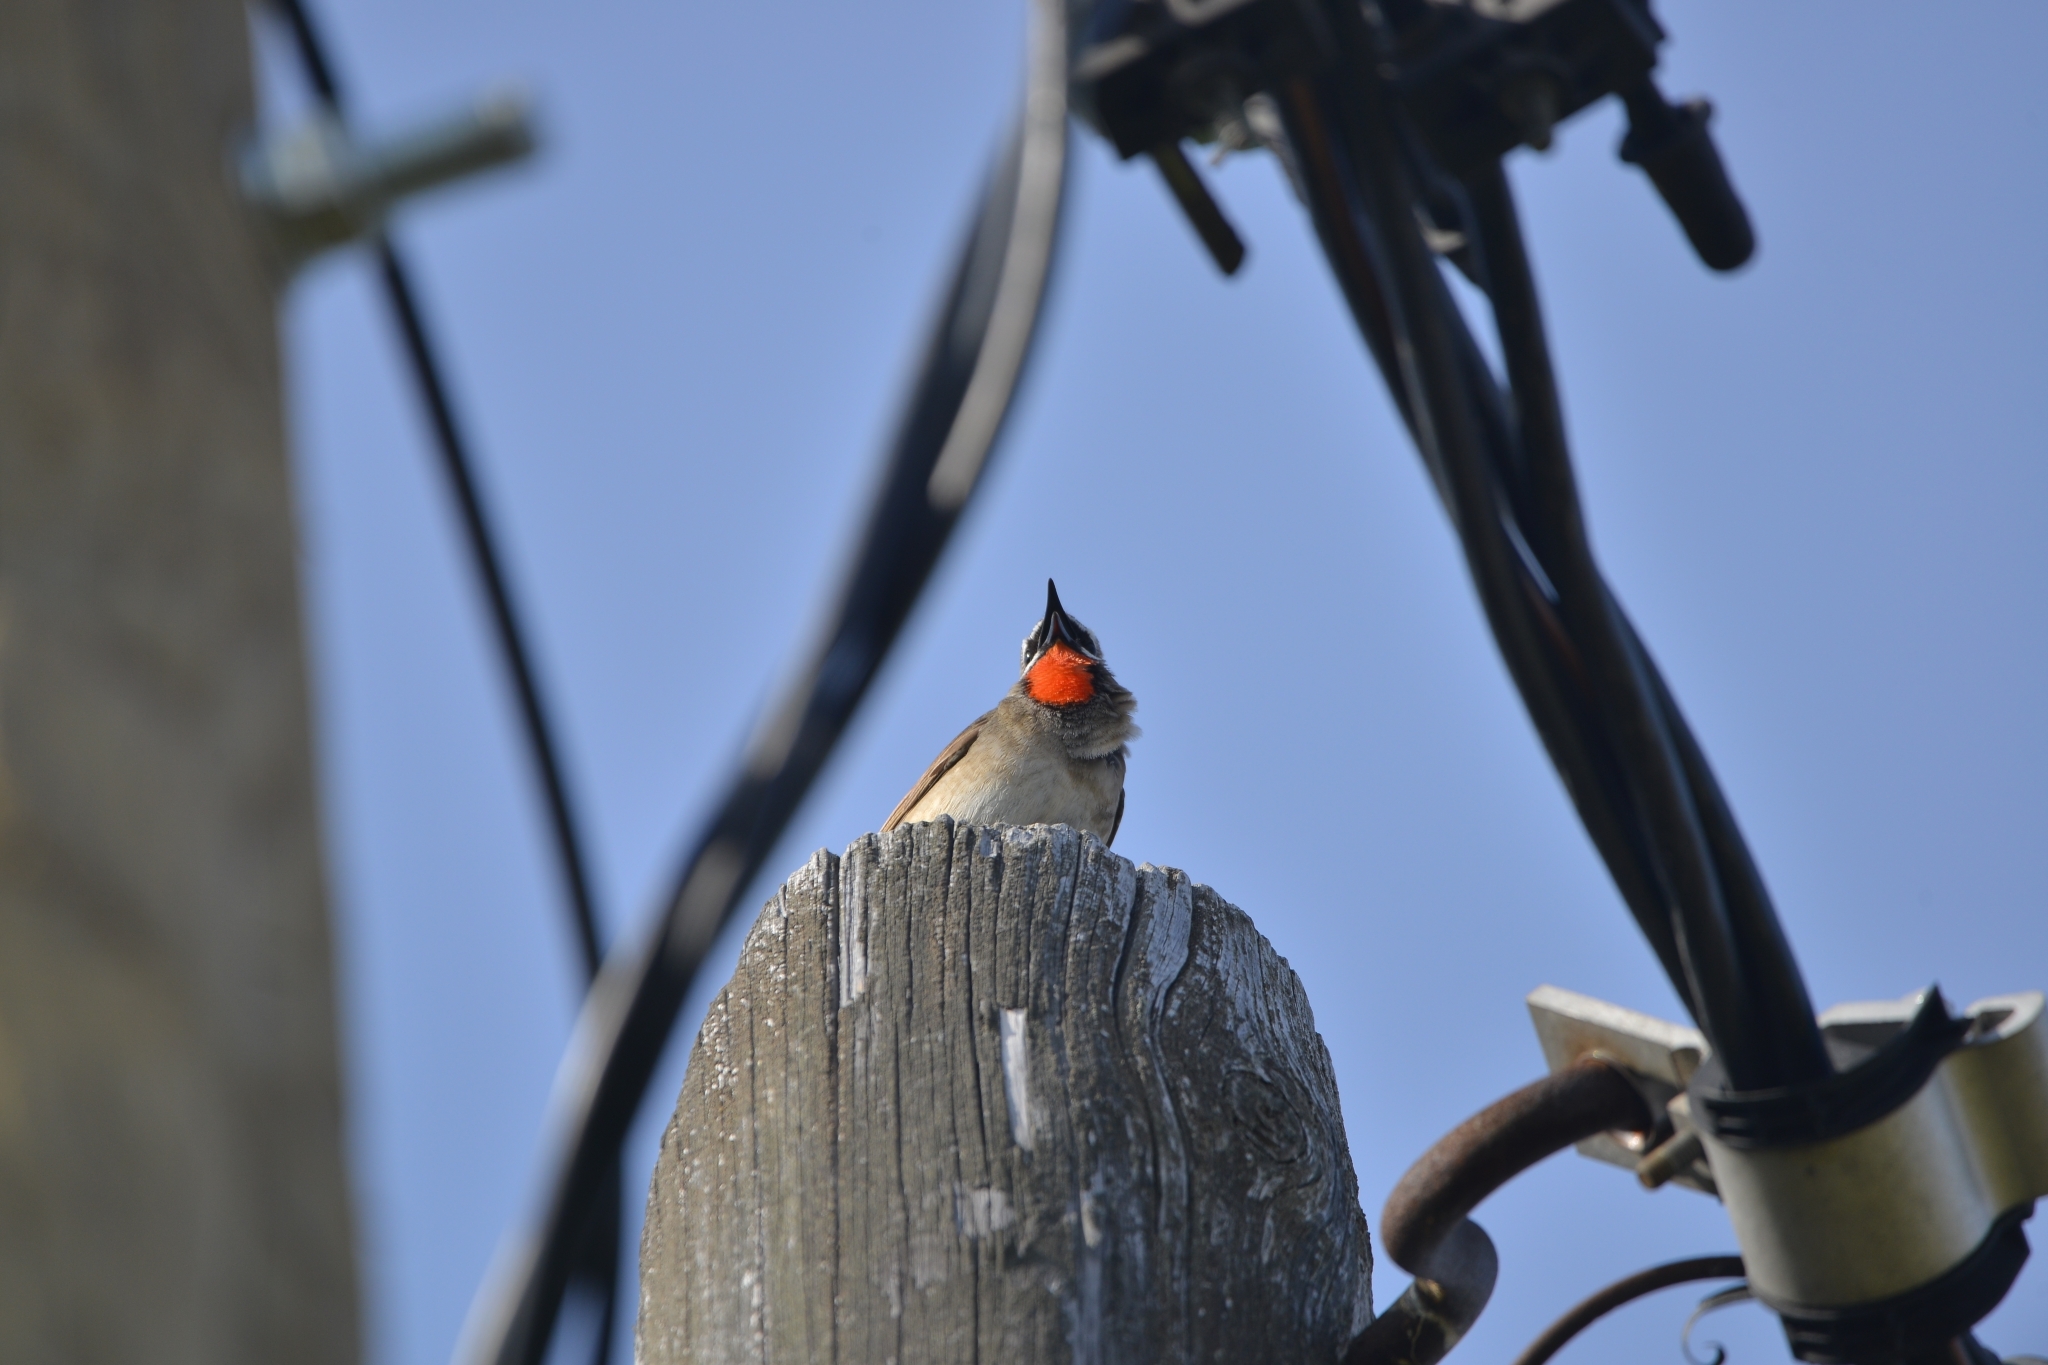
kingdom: Animalia
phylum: Chordata
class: Aves
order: Passeriformes
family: Muscicapidae
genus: Luscinia
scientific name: Luscinia calliope
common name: Siberian rubythroat
